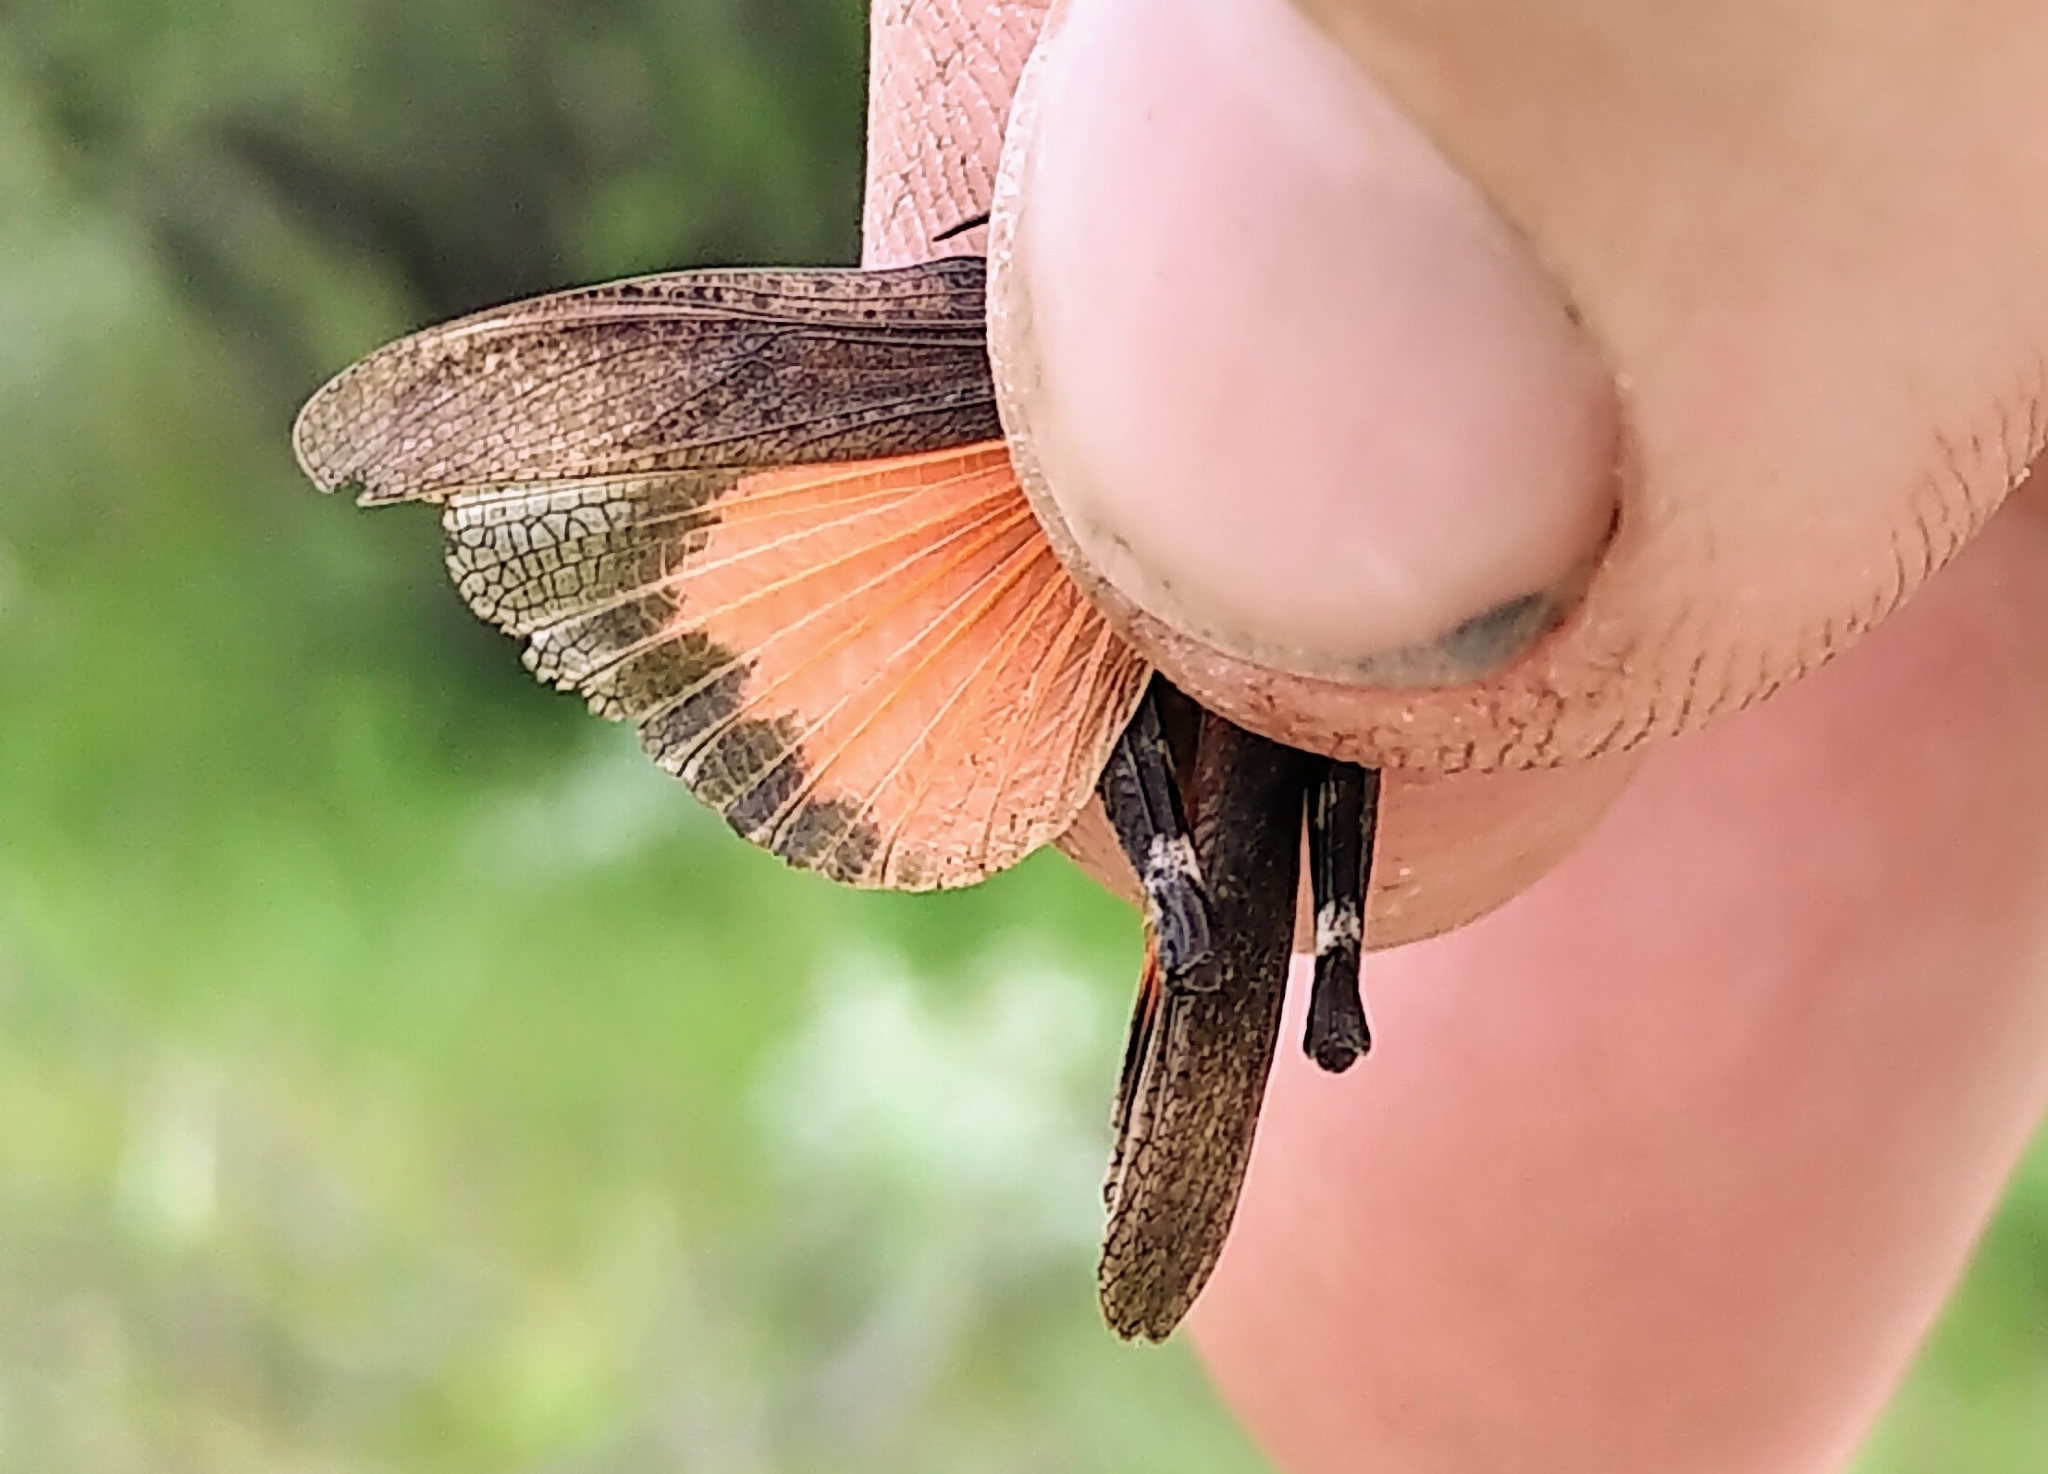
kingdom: Animalia
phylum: Arthropoda
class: Insecta
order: Orthoptera
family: Acrididae
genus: Arphia
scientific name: Arphia conspersa
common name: Speckle-winged rangeland grasshopper
